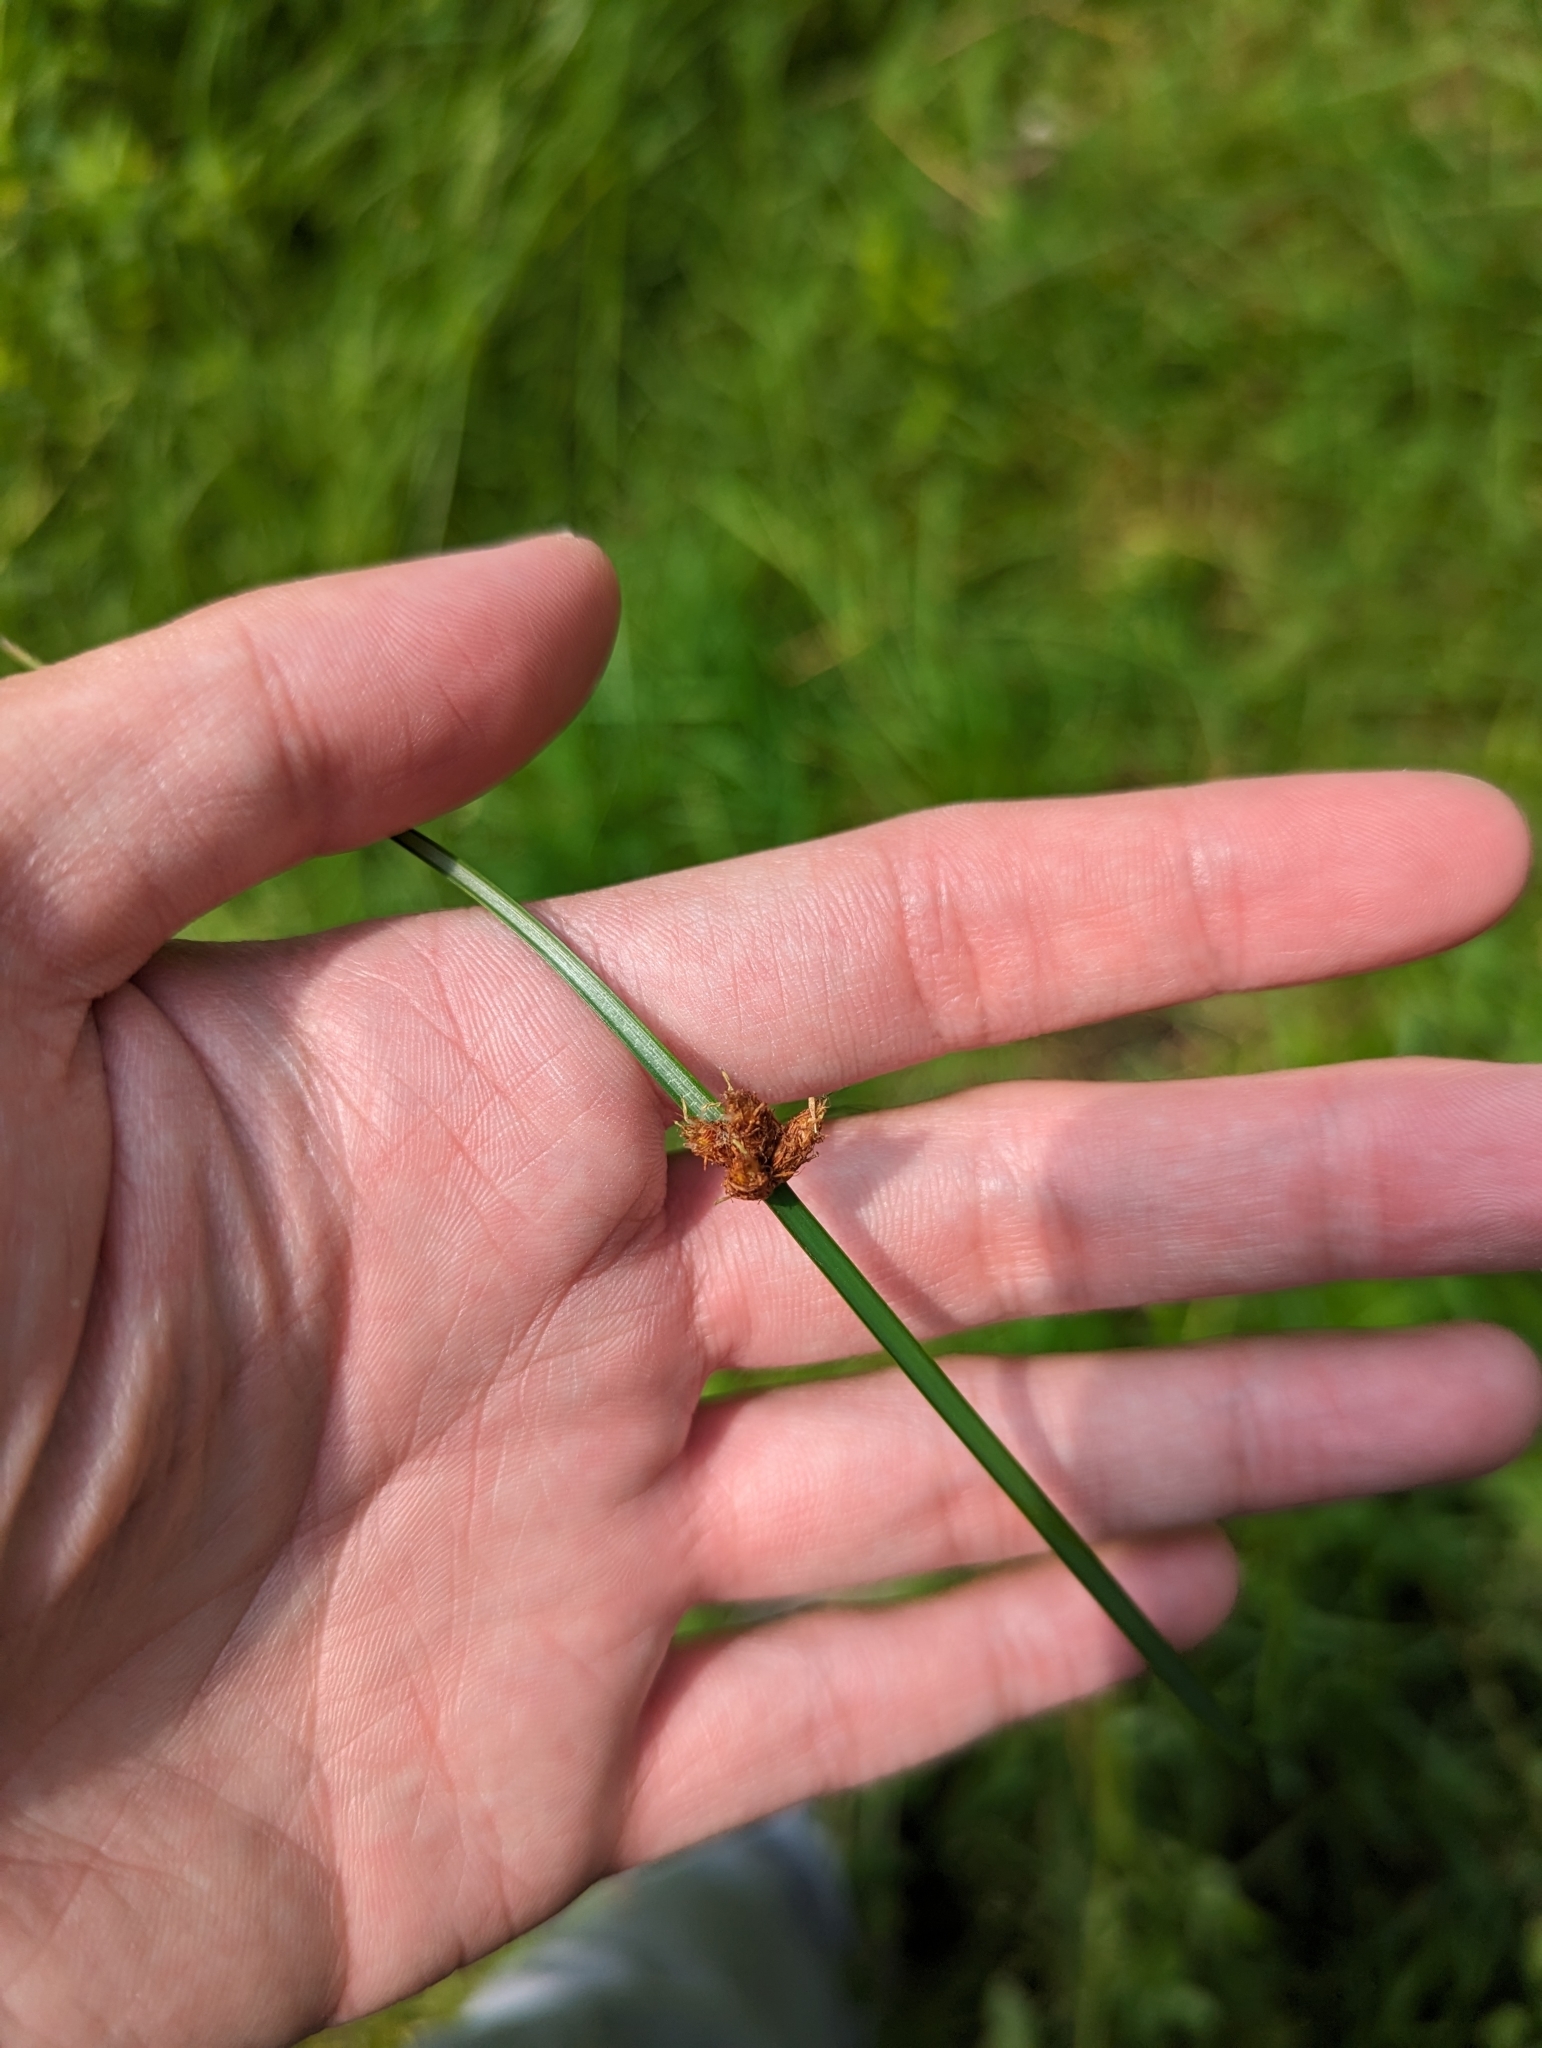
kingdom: Plantae
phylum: Tracheophyta
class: Liliopsida
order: Poales
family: Cyperaceae
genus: Schoenoplectus
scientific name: Schoenoplectus pungens
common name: Sharp club-rush
